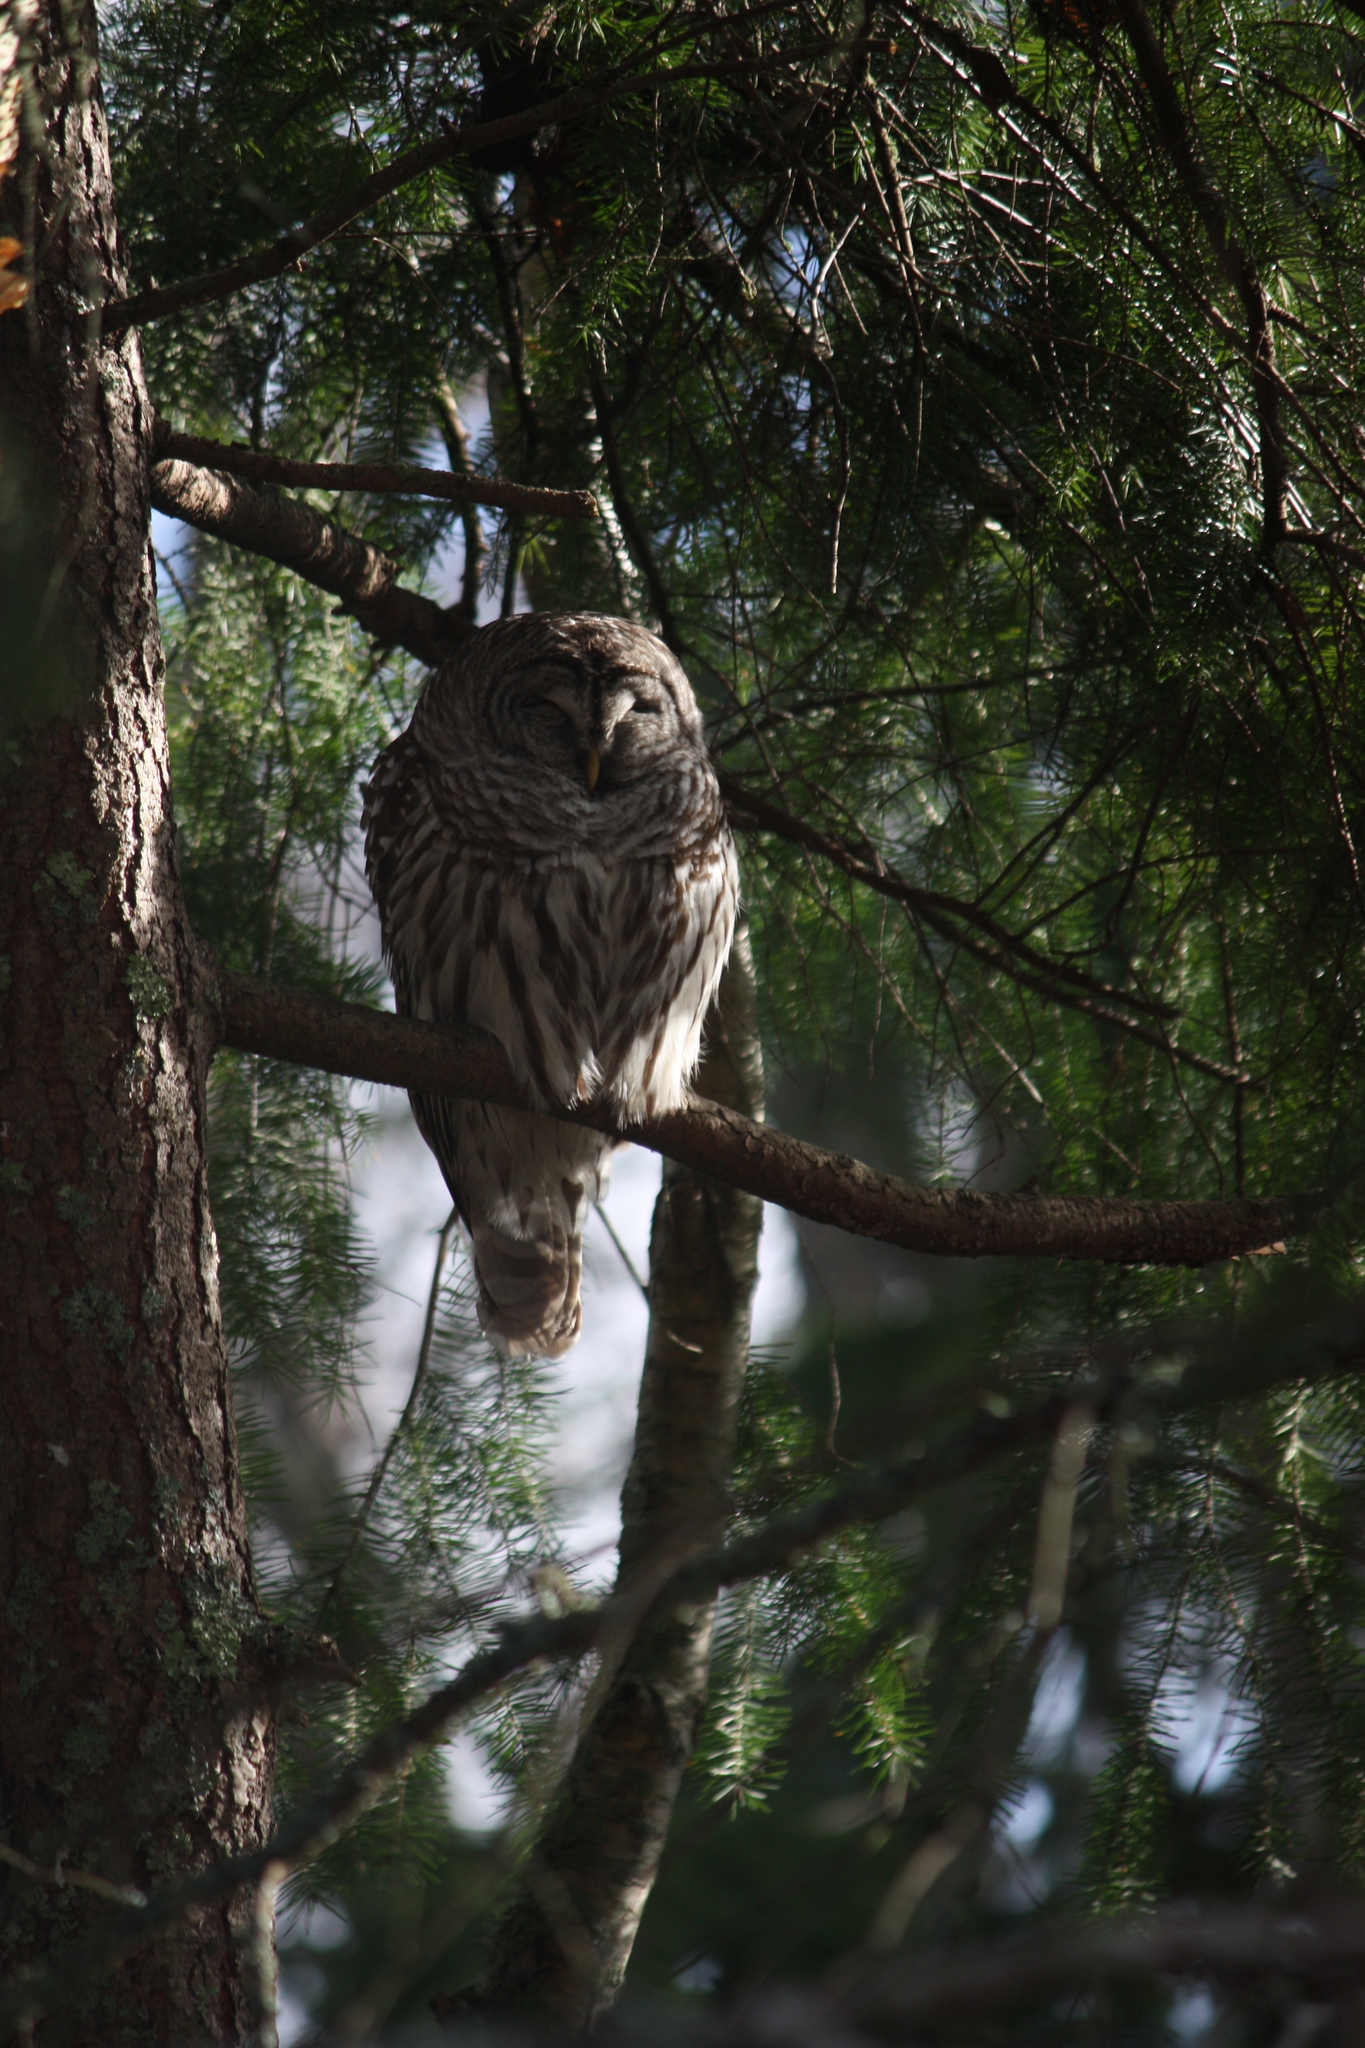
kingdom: Animalia
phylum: Chordata
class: Aves
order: Strigiformes
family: Strigidae
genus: Strix
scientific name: Strix varia
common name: Barred owl
